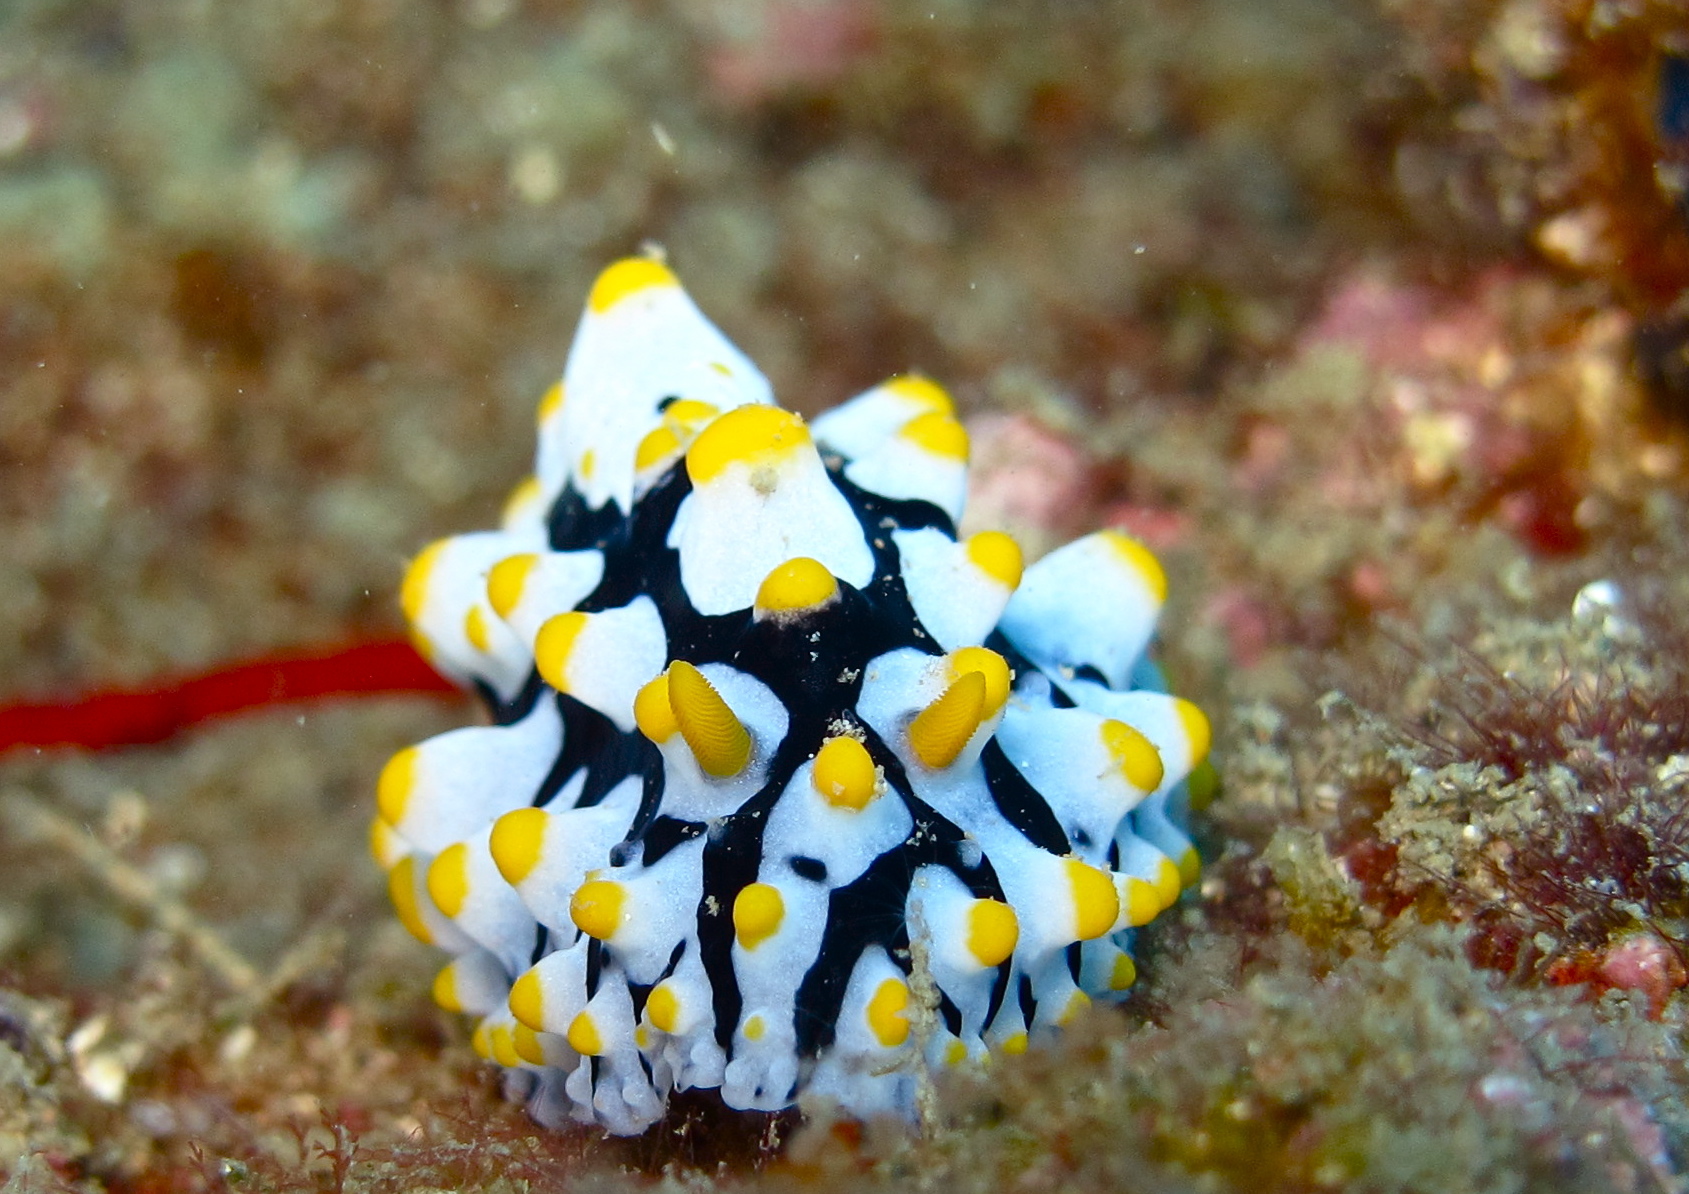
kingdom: Animalia
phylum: Mollusca
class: Gastropoda
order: Nudibranchia
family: Phyllidiidae
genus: Phyllidia
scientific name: Phyllidia varicosa
